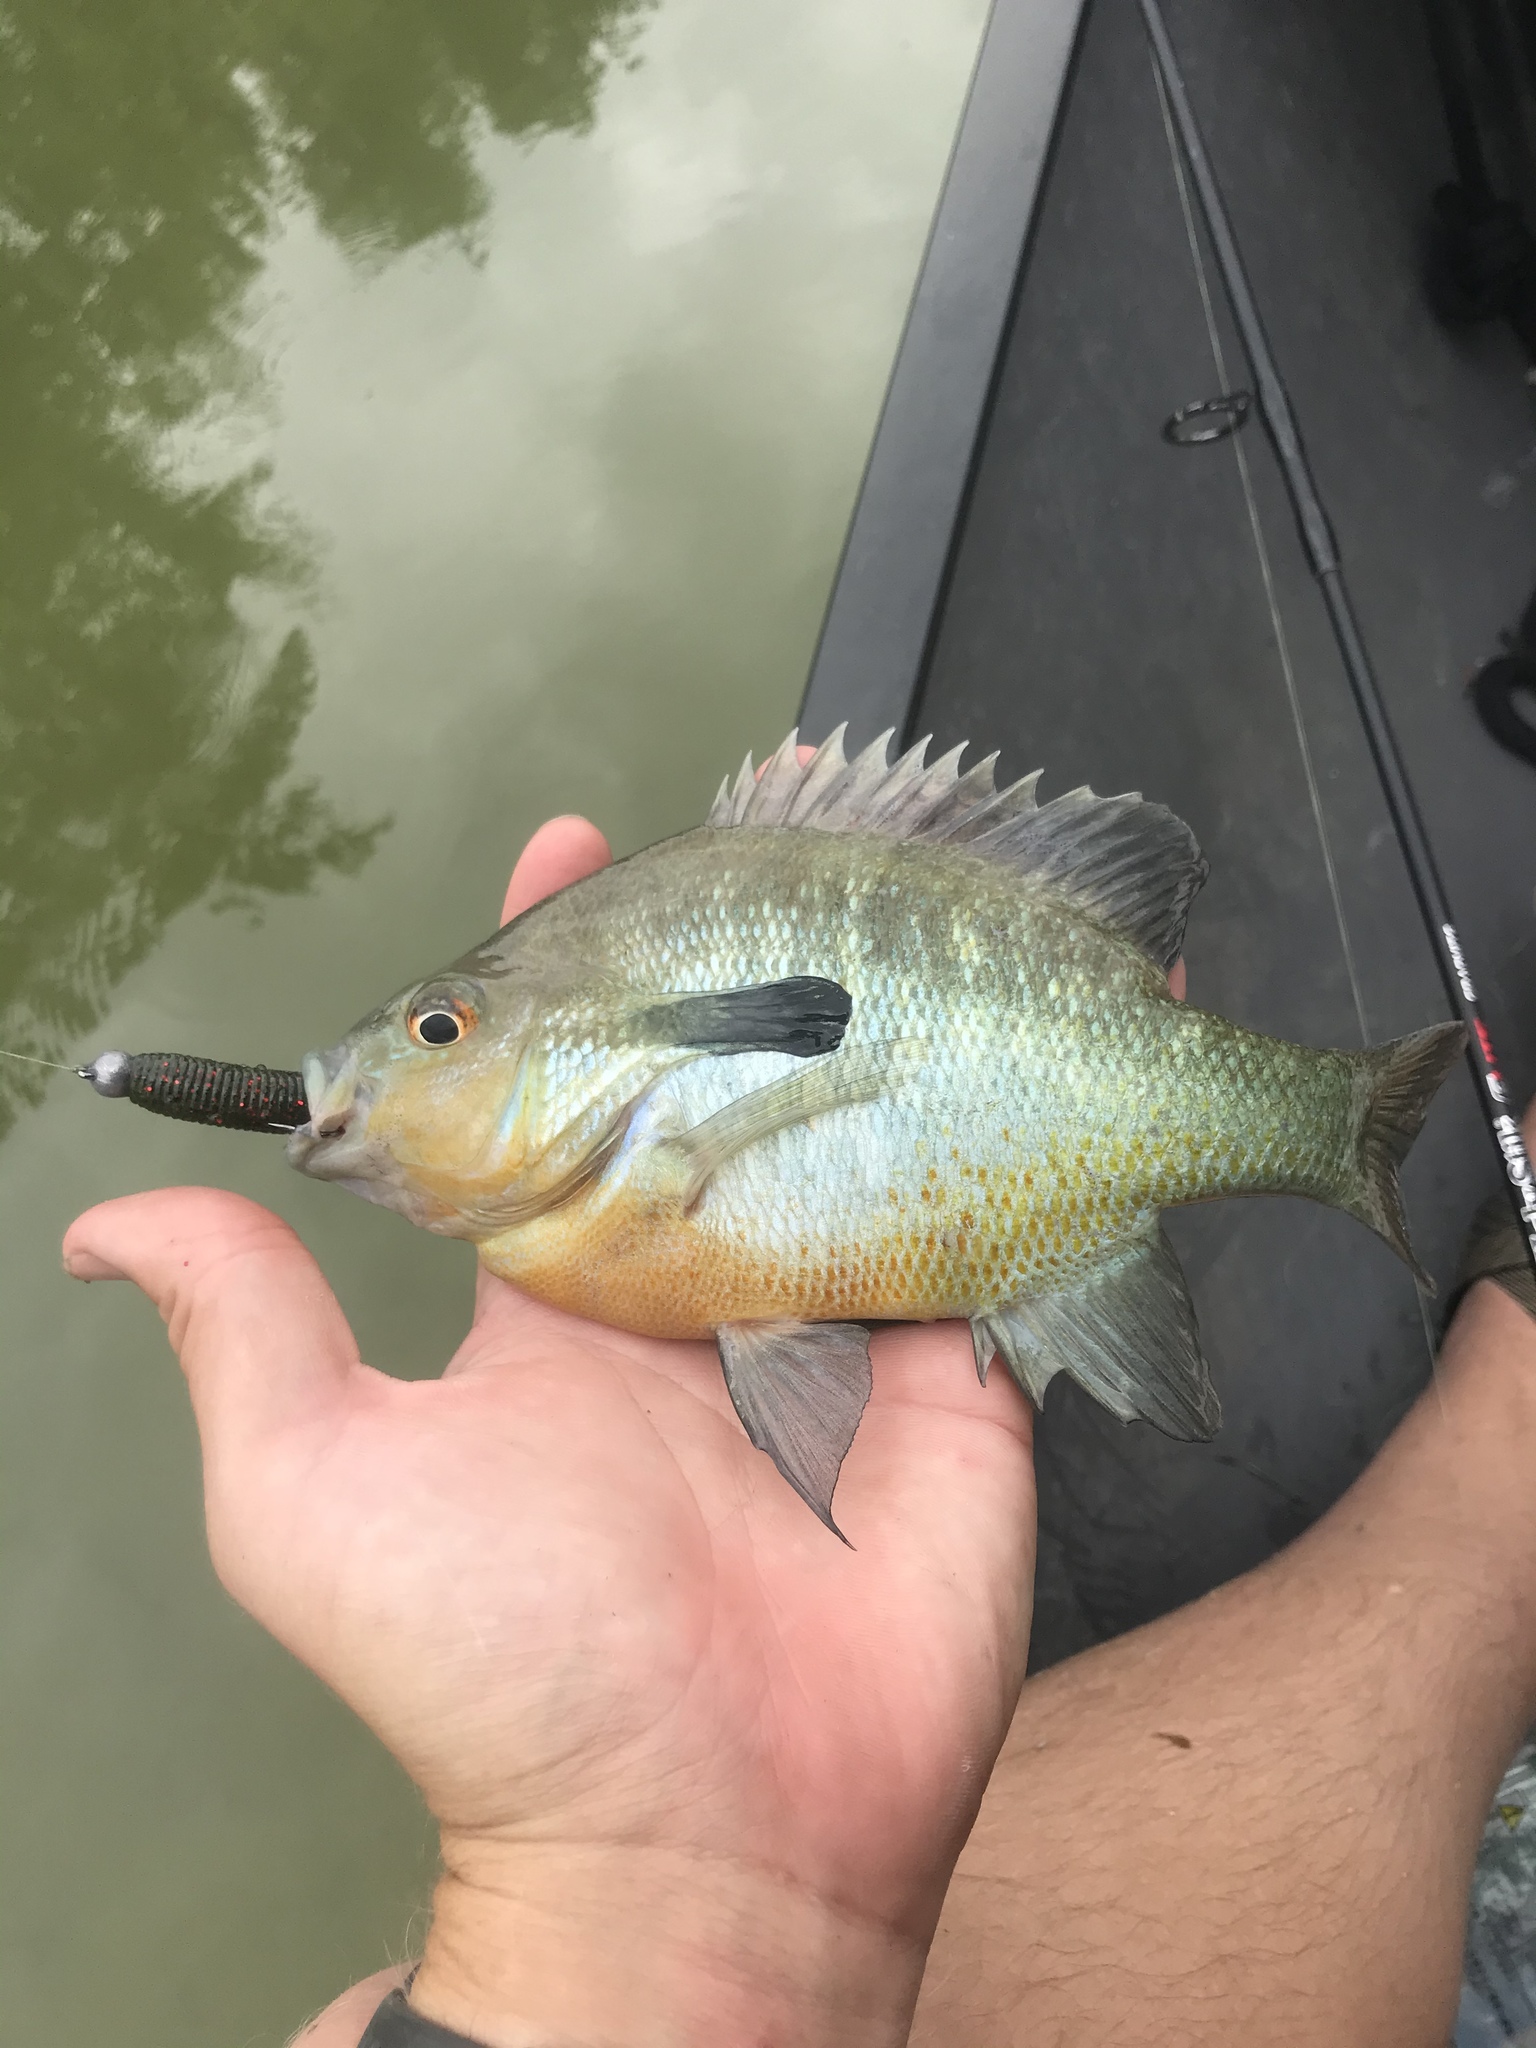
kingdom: Animalia
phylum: Chordata
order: Perciformes
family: Centrarchidae
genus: Lepomis
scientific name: Lepomis auritus
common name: Redbreast sunfish
